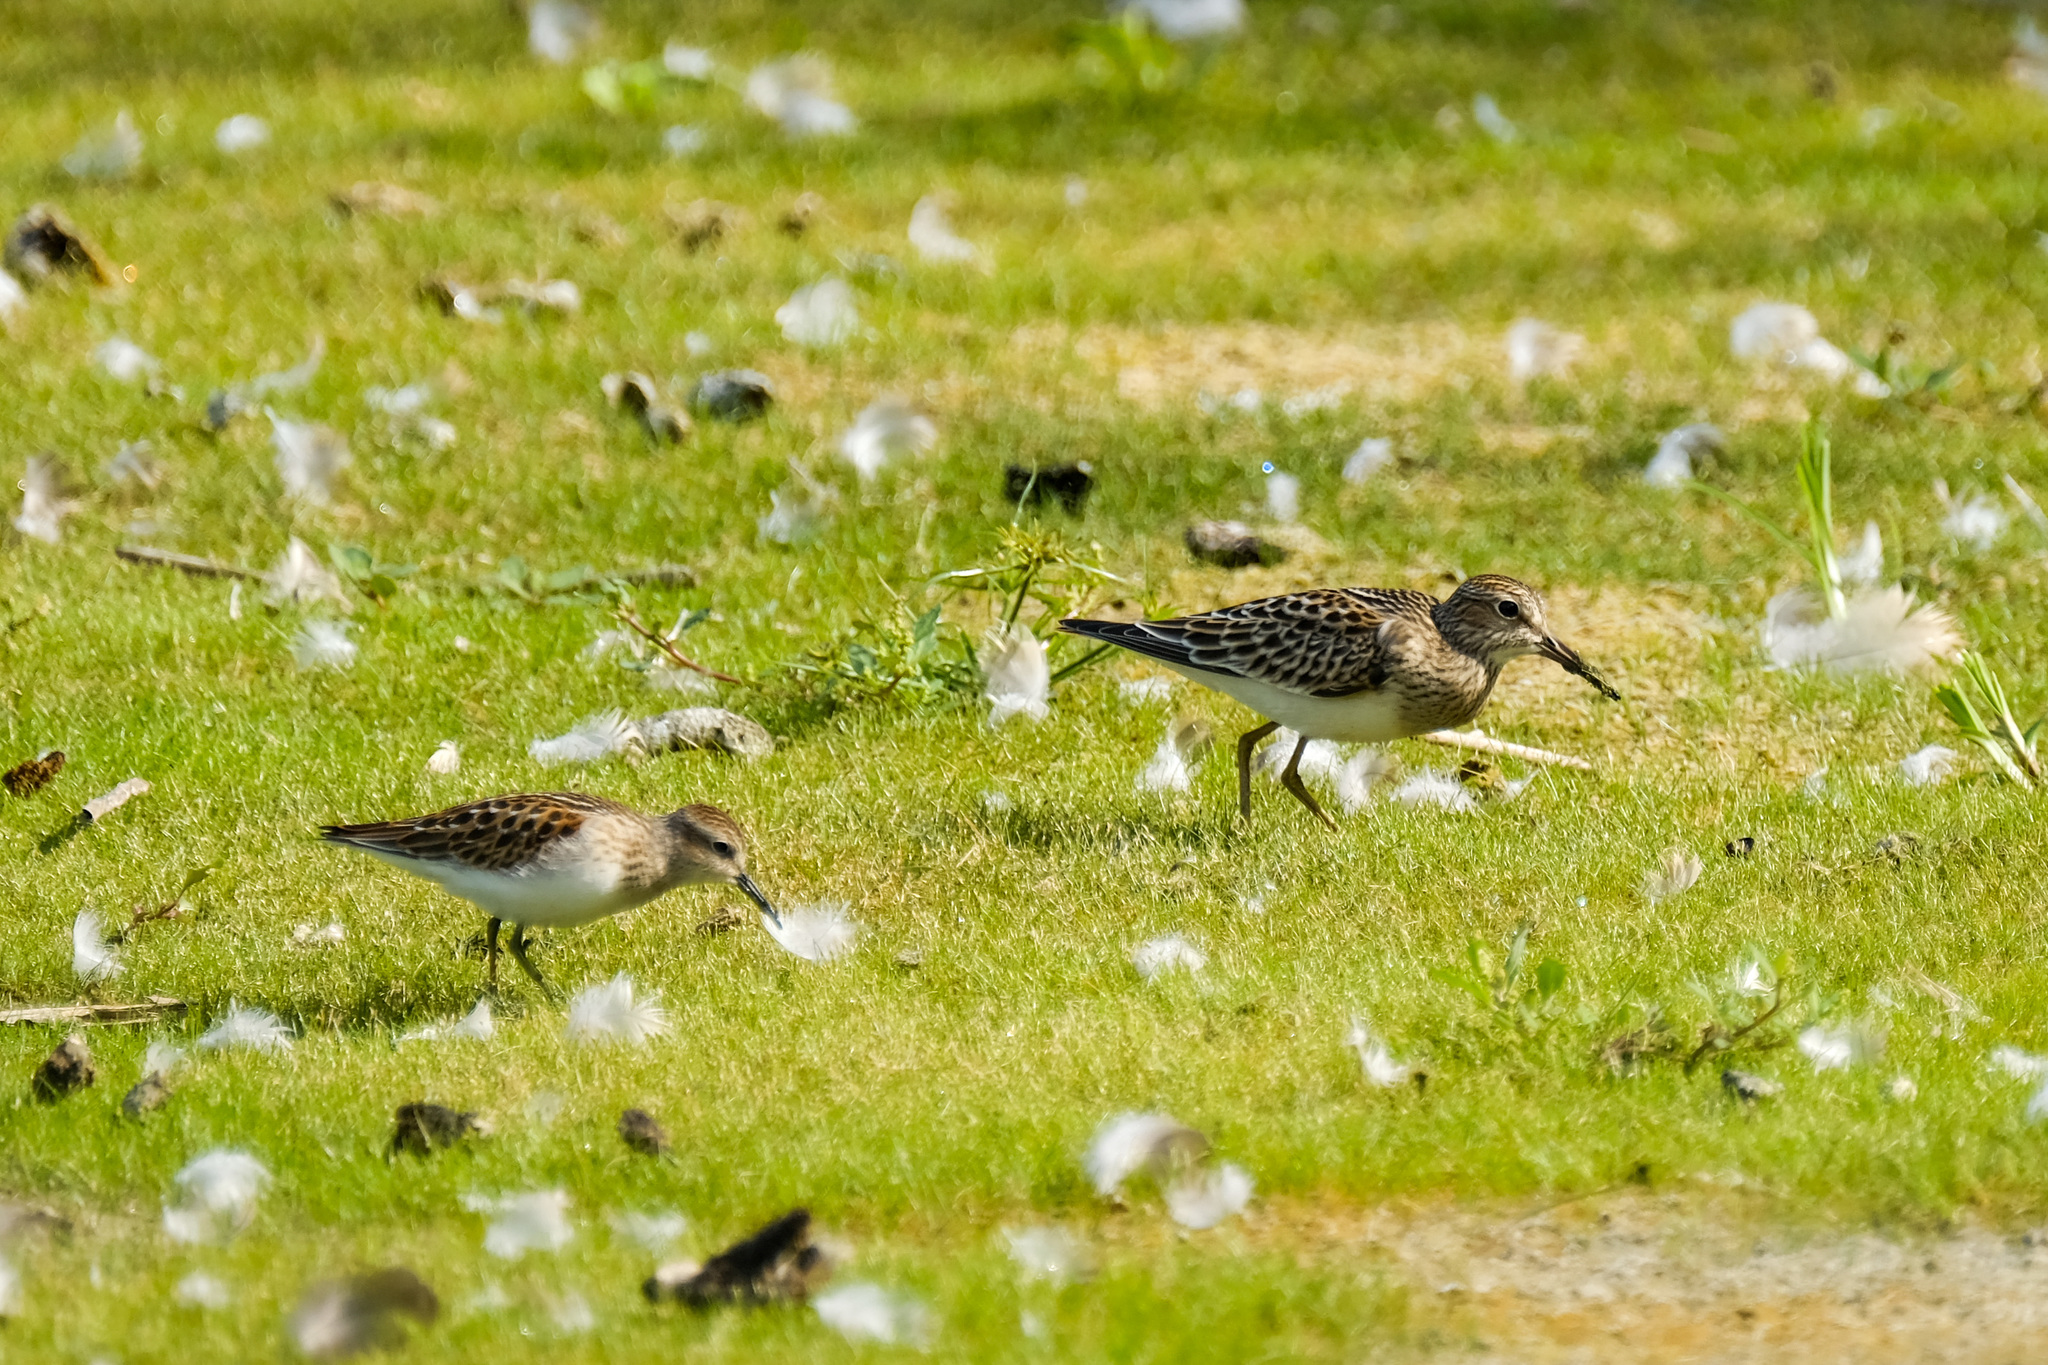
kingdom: Animalia
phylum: Chordata
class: Aves
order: Charadriiformes
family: Scolopacidae
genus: Calidris
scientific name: Calidris minutilla
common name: Least sandpiper
